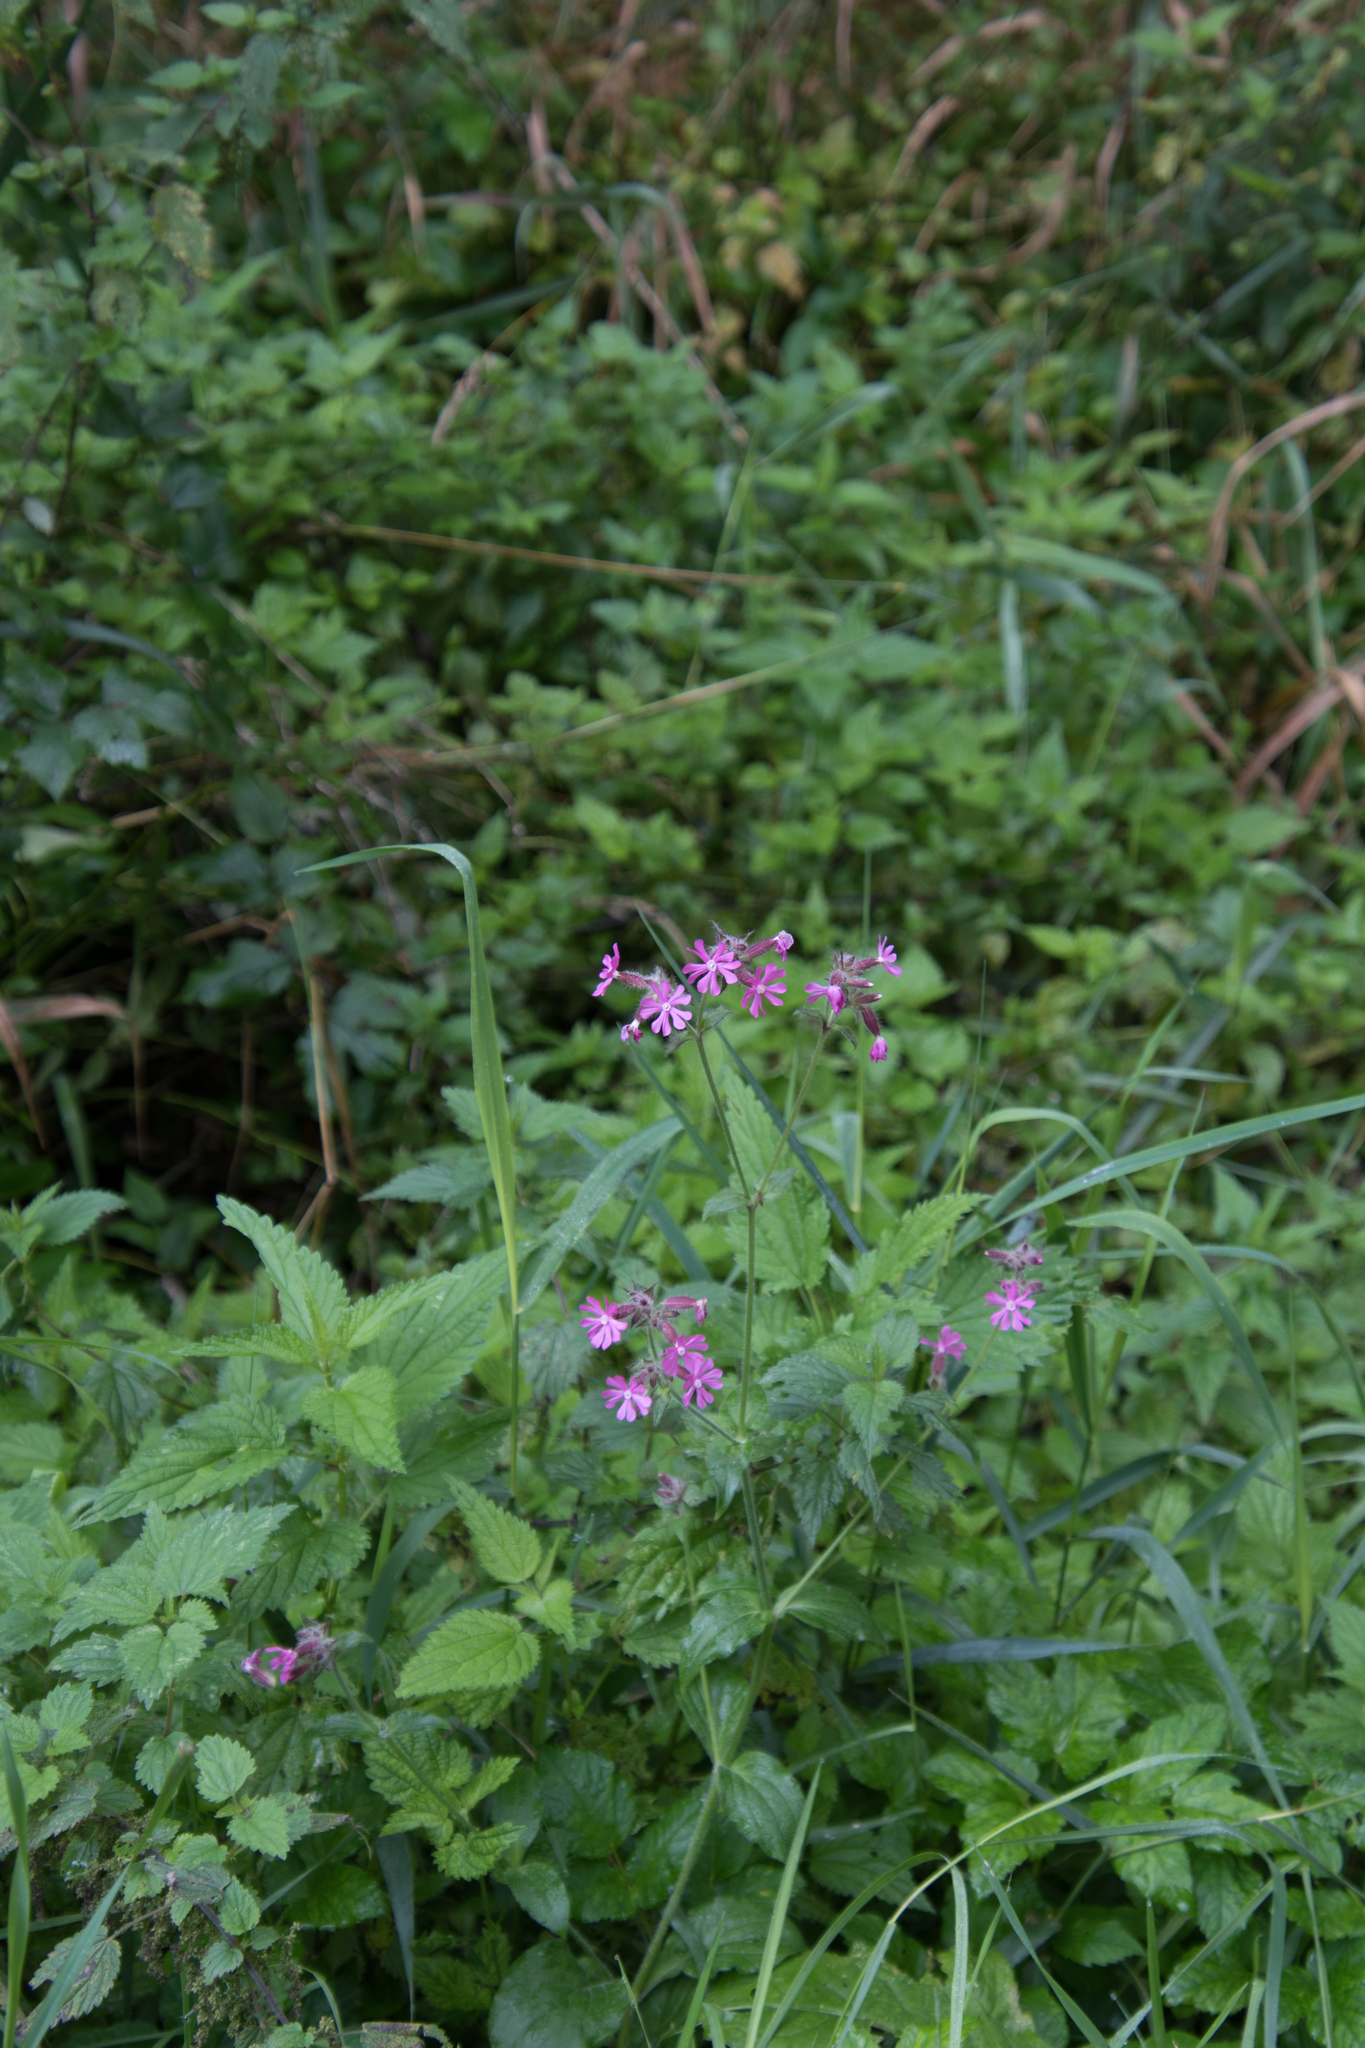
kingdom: Plantae
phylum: Tracheophyta
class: Magnoliopsida
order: Caryophyllales
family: Caryophyllaceae
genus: Silene
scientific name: Silene dioica
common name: Red campion
